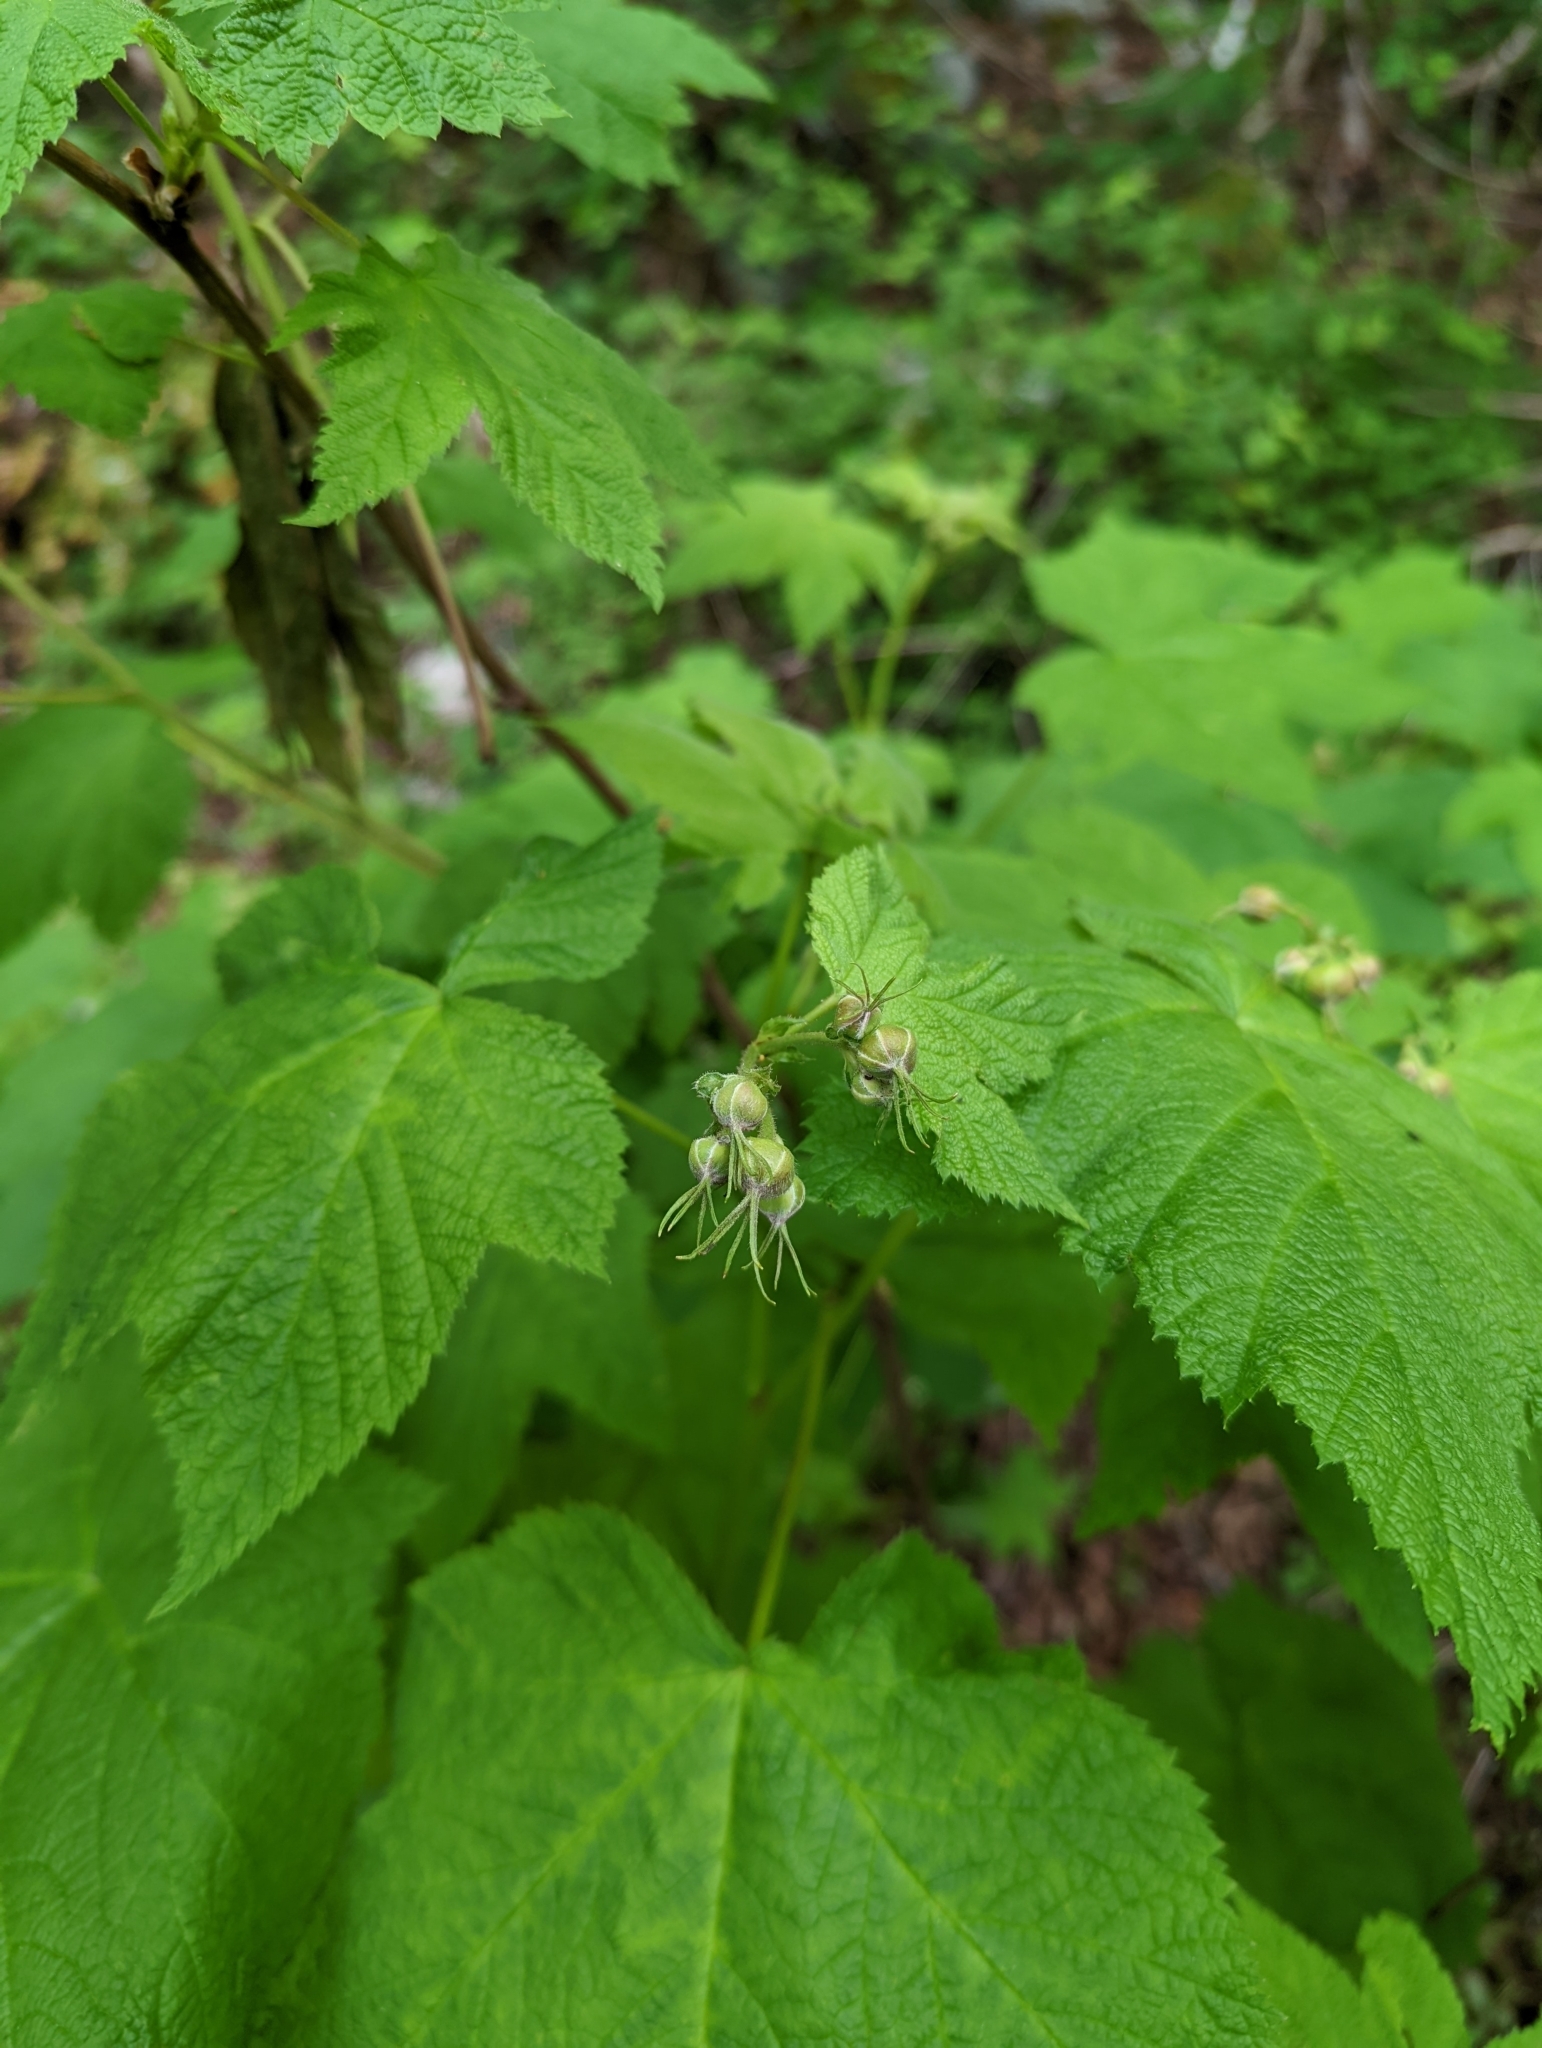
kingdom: Plantae
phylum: Tracheophyta
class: Magnoliopsida
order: Rosales
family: Rosaceae
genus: Rubus
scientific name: Rubus parviflorus
